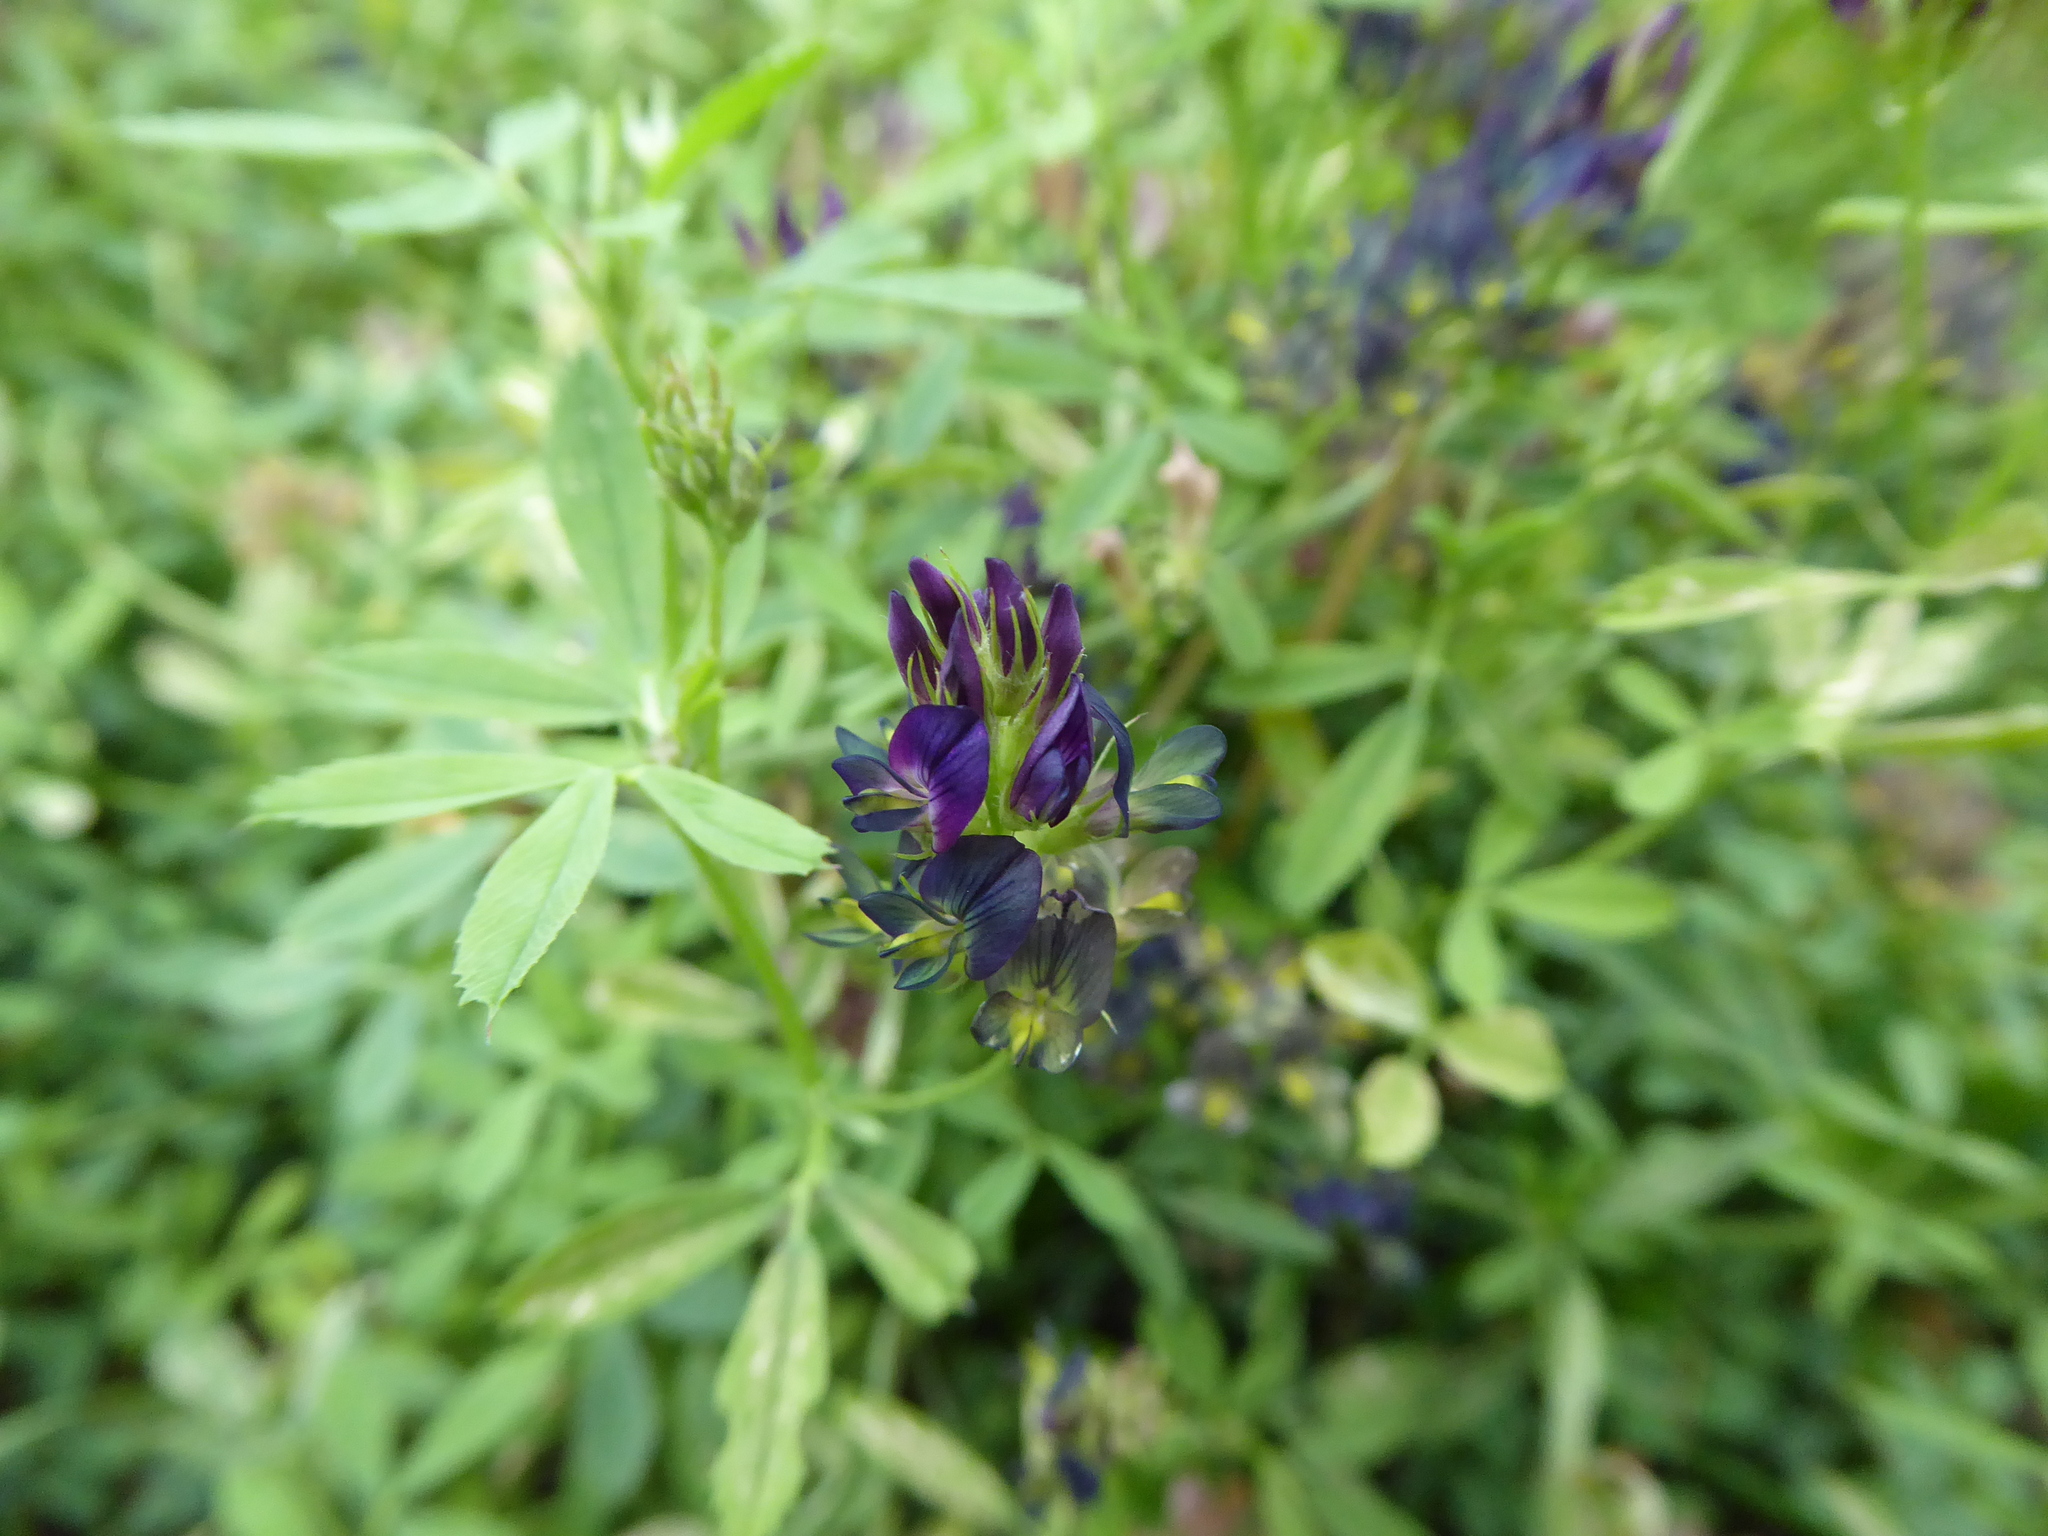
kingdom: Plantae
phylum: Tracheophyta
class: Magnoliopsida
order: Fabales
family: Fabaceae
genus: Medicago
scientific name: Medicago sativa
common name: Alfalfa
